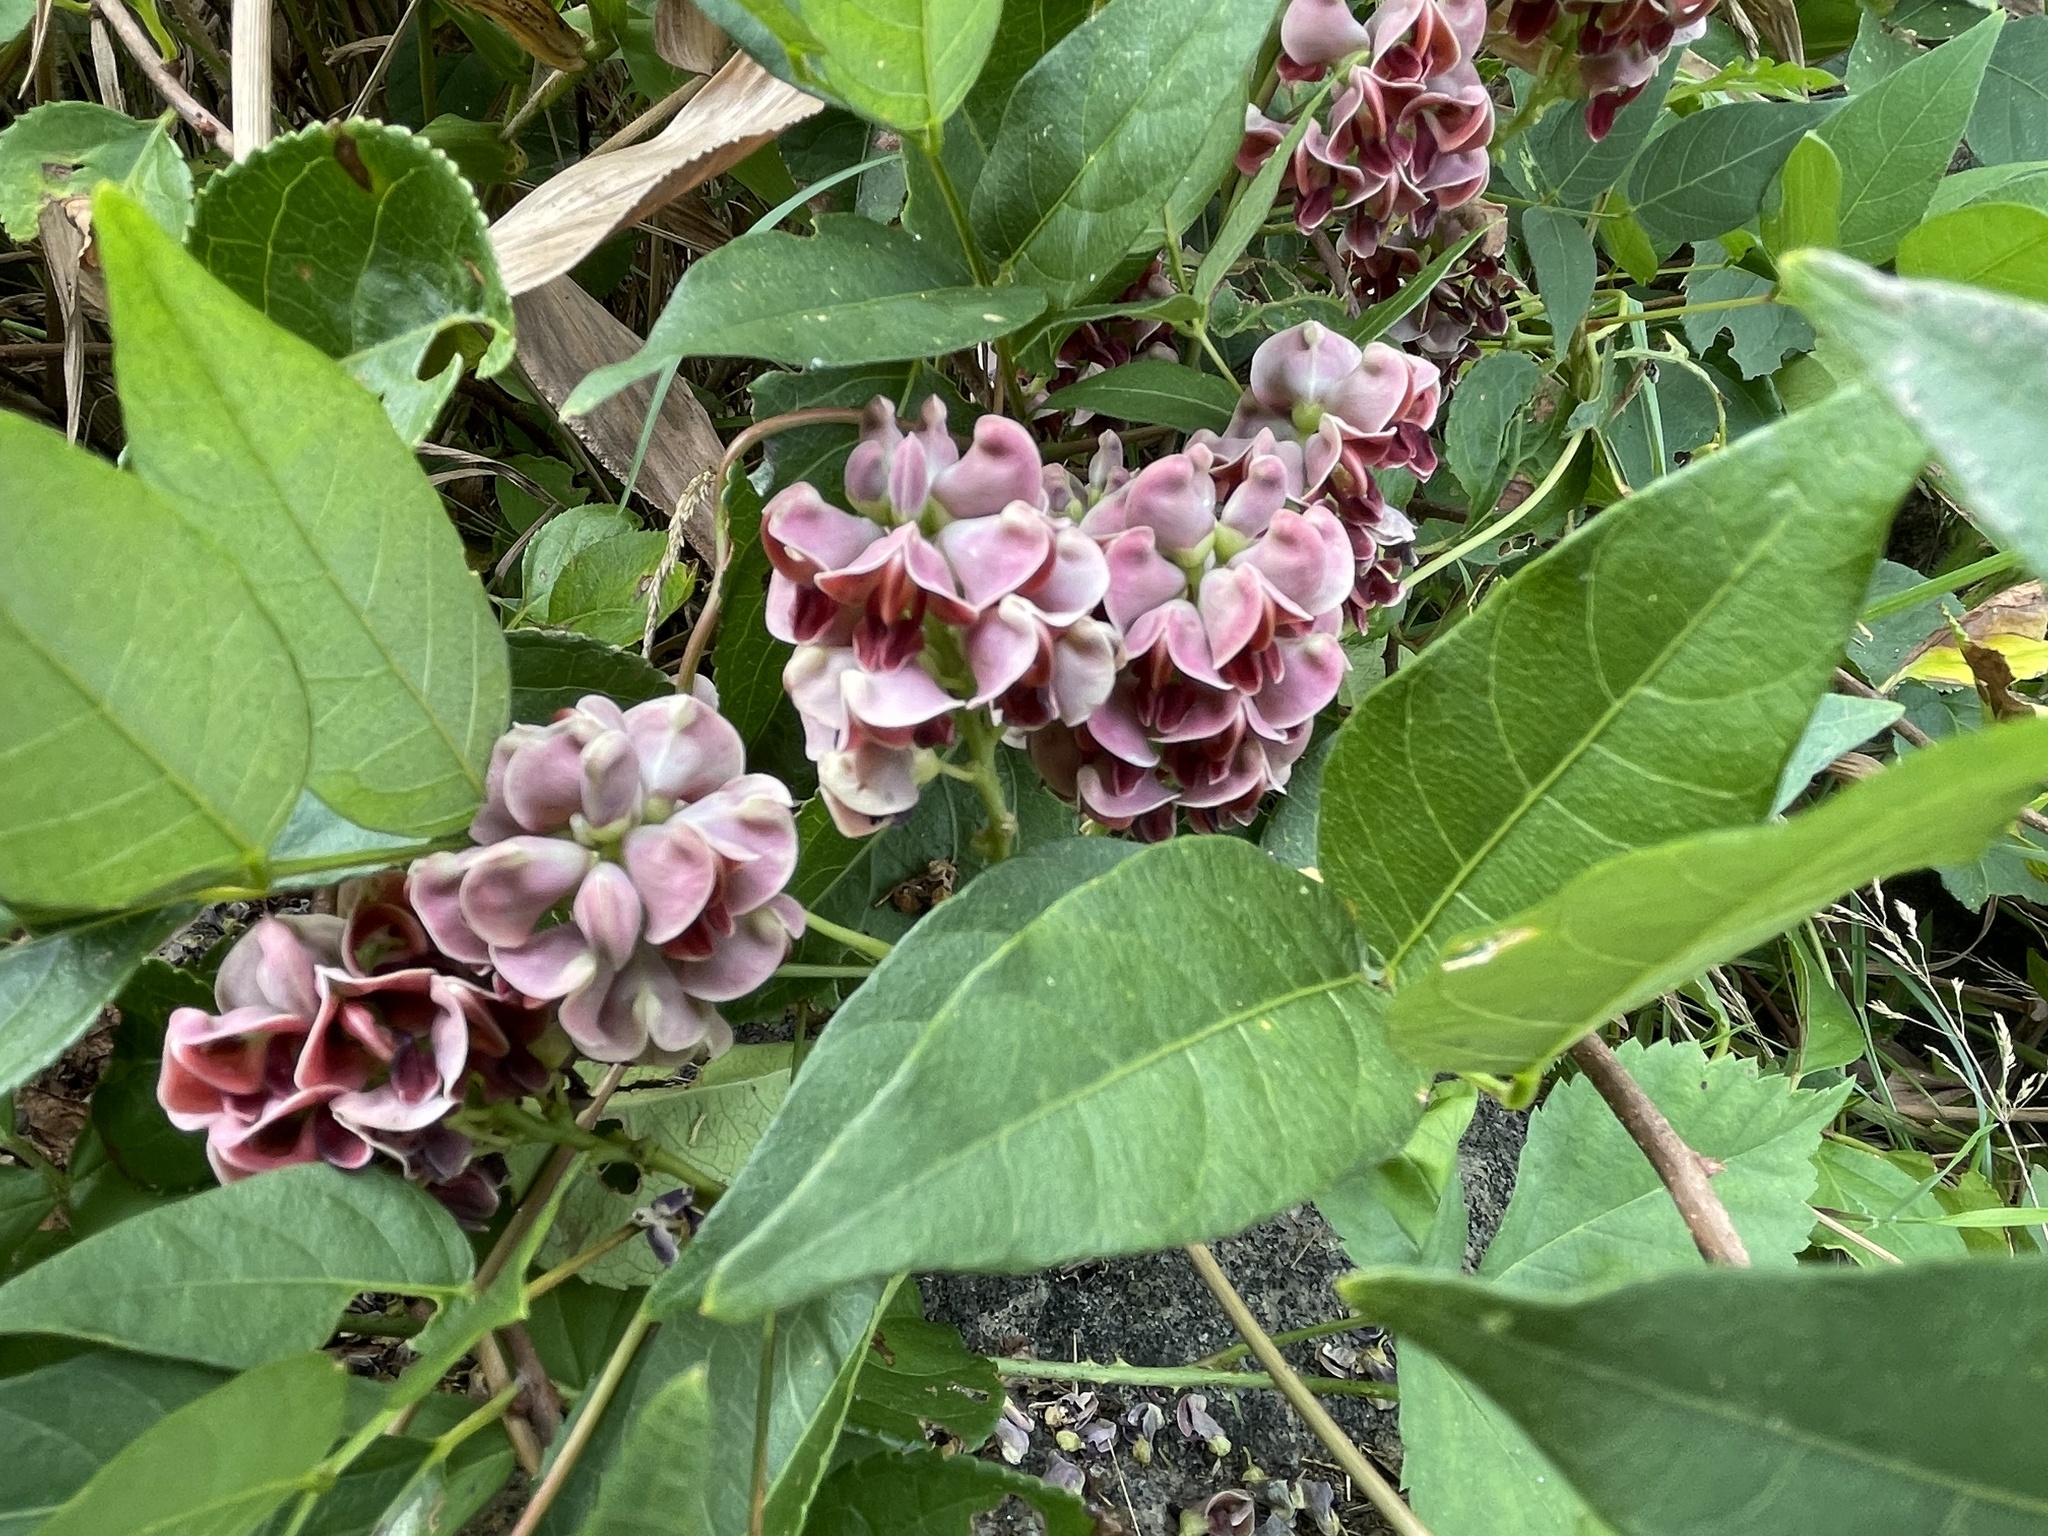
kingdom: Plantae
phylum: Tracheophyta
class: Magnoliopsida
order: Fabales
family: Fabaceae
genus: Apios
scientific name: Apios americana
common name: American potato-bean
